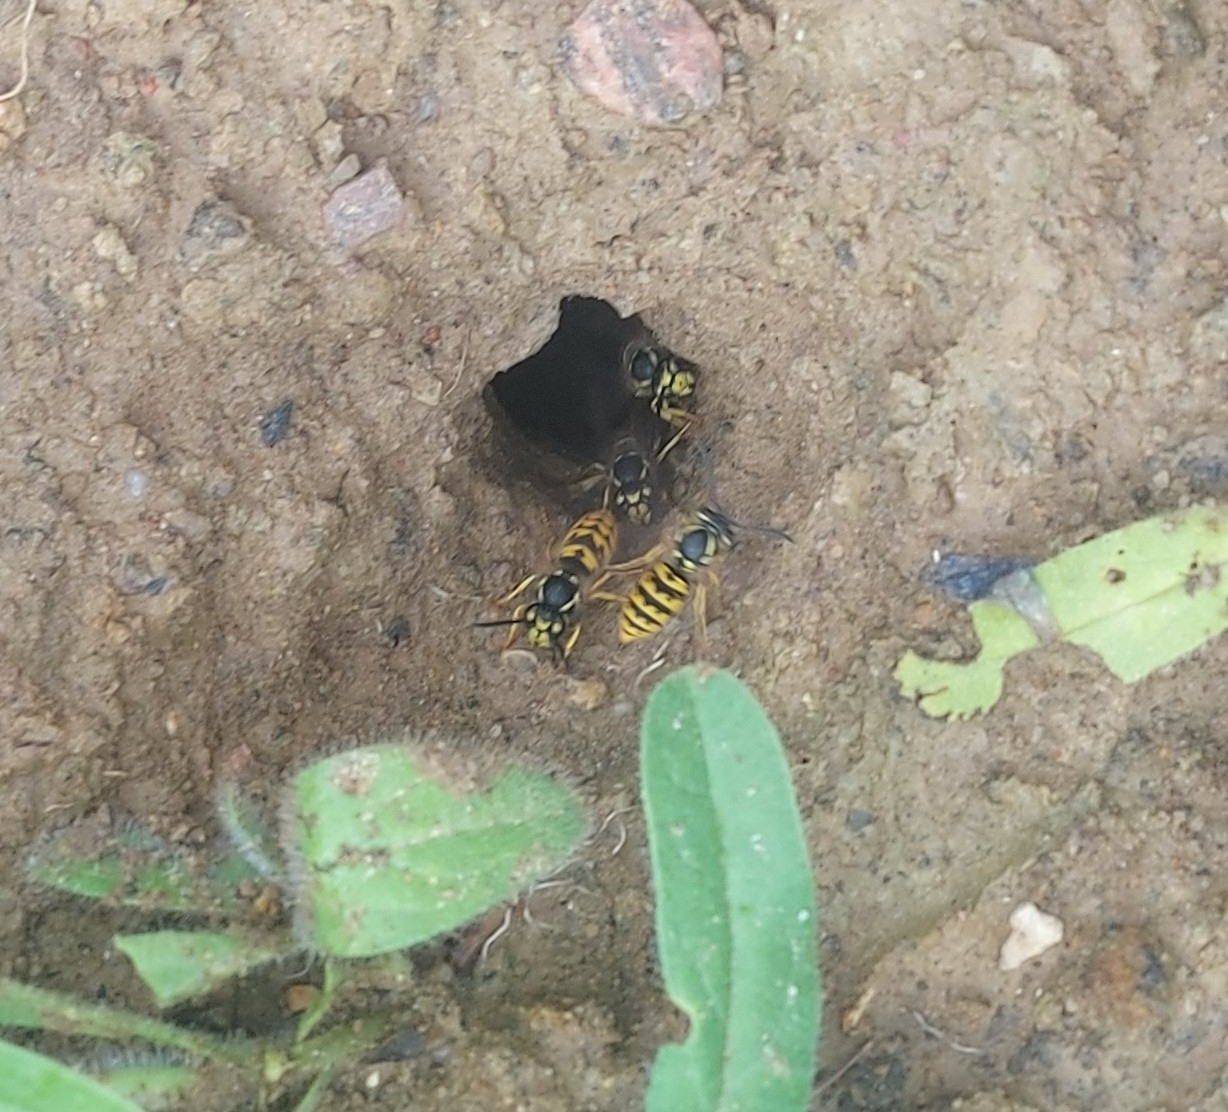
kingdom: Animalia
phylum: Arthropoda
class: Insecta
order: Hymenoptera
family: Vespidae
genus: Vespula
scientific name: Vespula germanica
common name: German wasp
